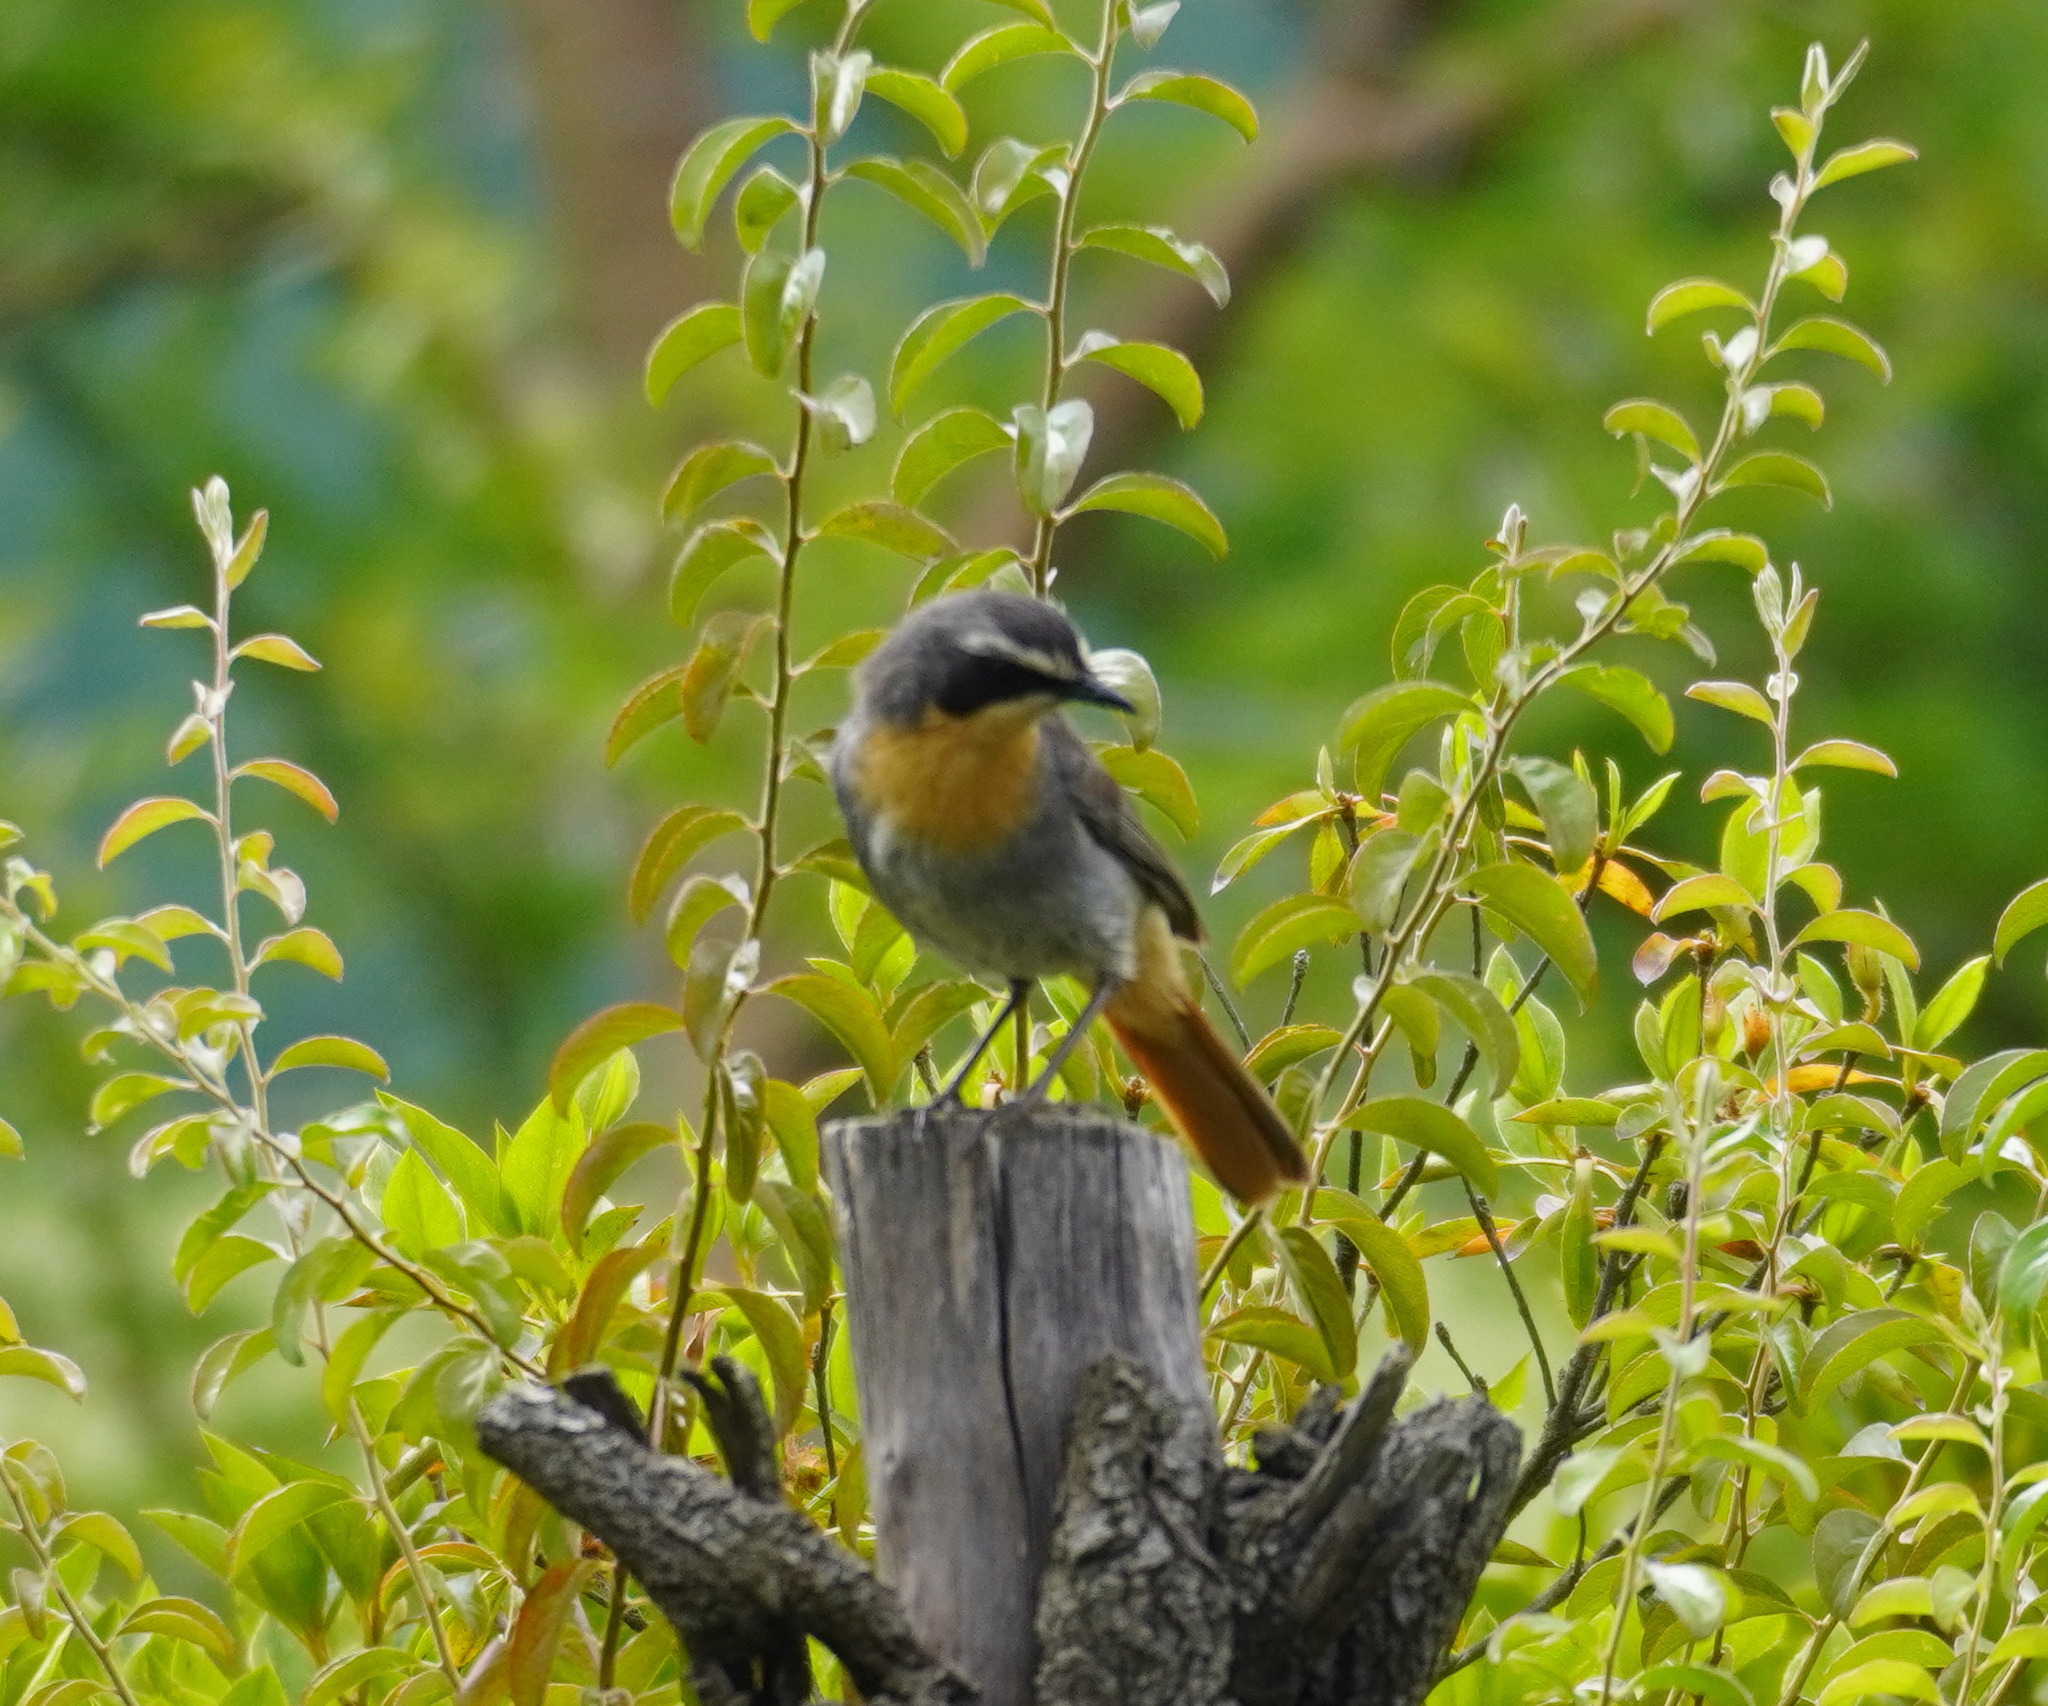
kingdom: Animalia
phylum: Chordata
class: Aves
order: Passeriformes
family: Muscicapidae
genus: Cossypha
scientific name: Cossypha caffra
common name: Cape robin-chat
